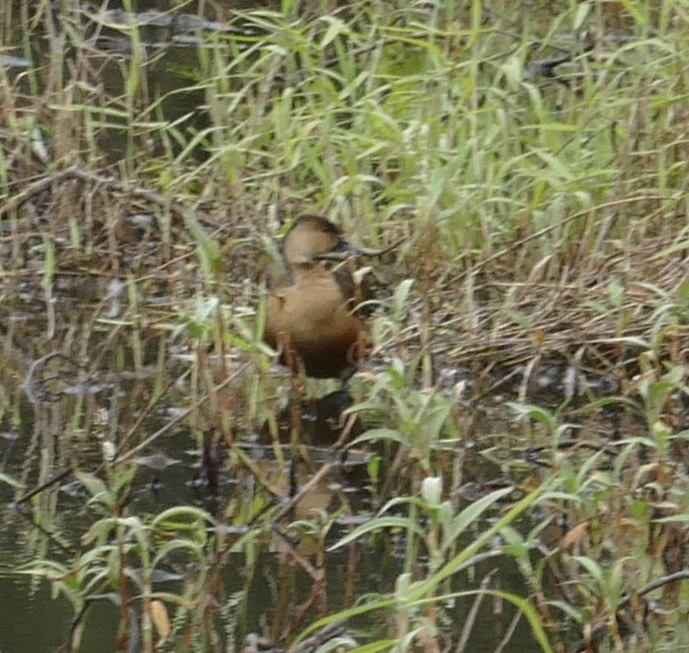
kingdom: Animalia
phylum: Chordata
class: Aves
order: Anseriformes
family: Anatidae
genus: Dendrocygna
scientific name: Dendrocygna arcuata
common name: Wandering whistling-duck
